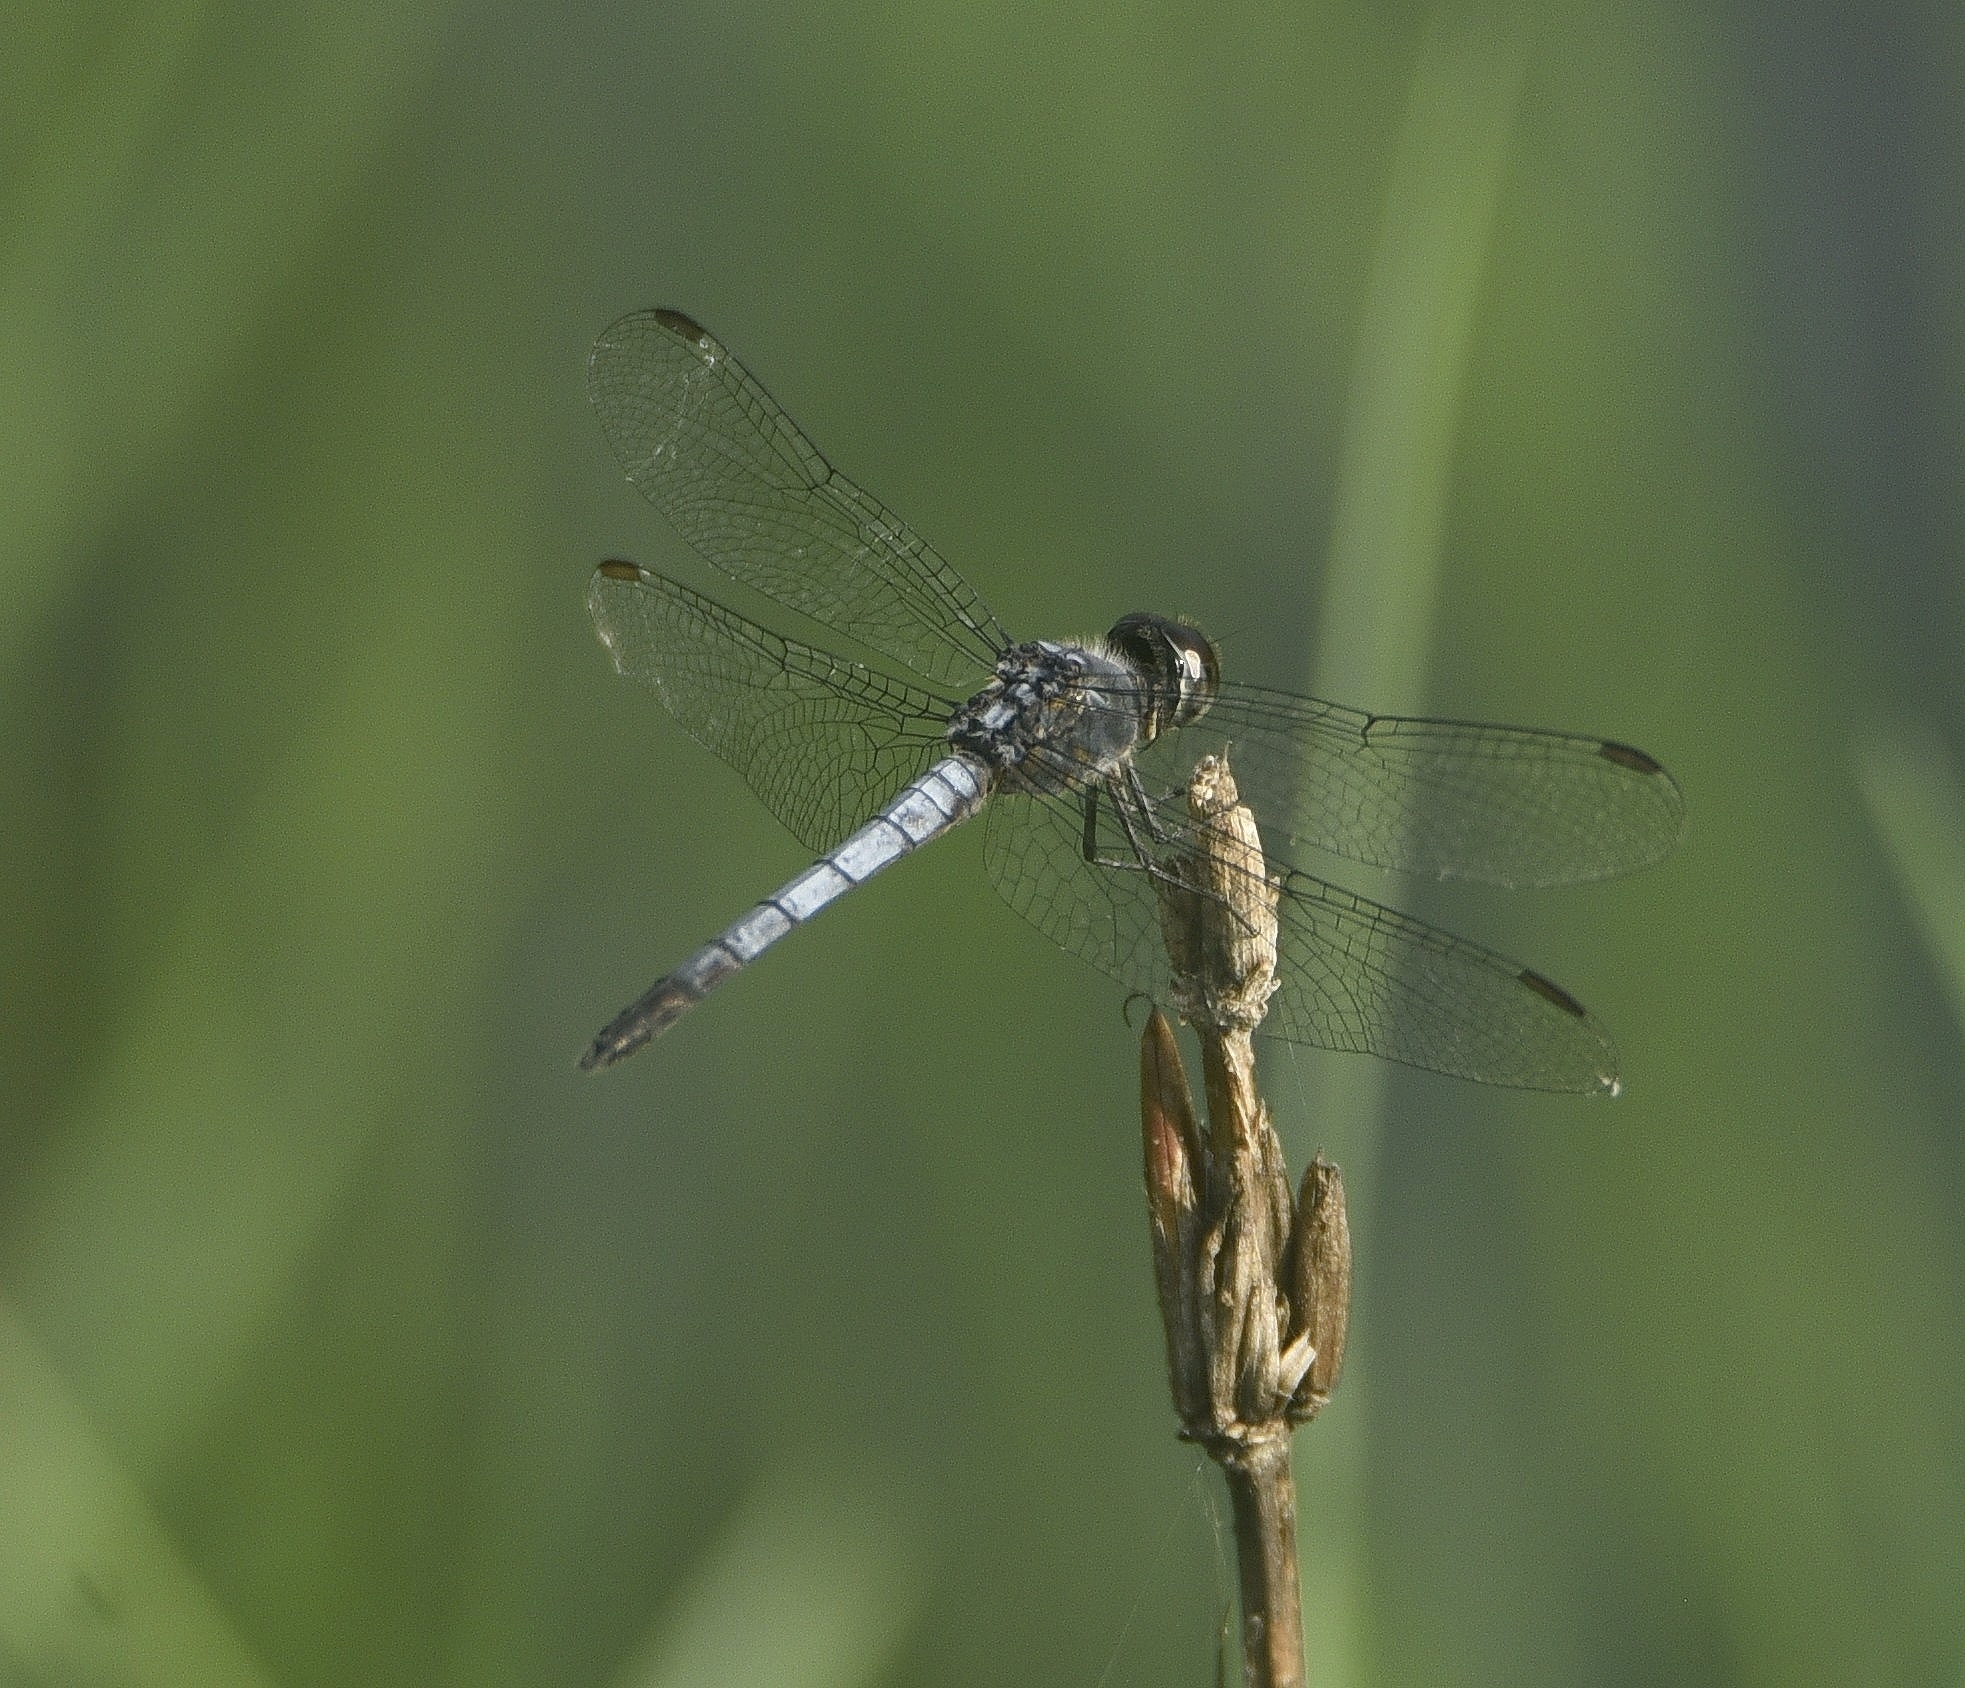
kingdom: Animalia
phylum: Arthropoda
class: Insecta
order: Odonata
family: Libellulidae
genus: Brachydiplax
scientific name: Brachydiplax sobrina
